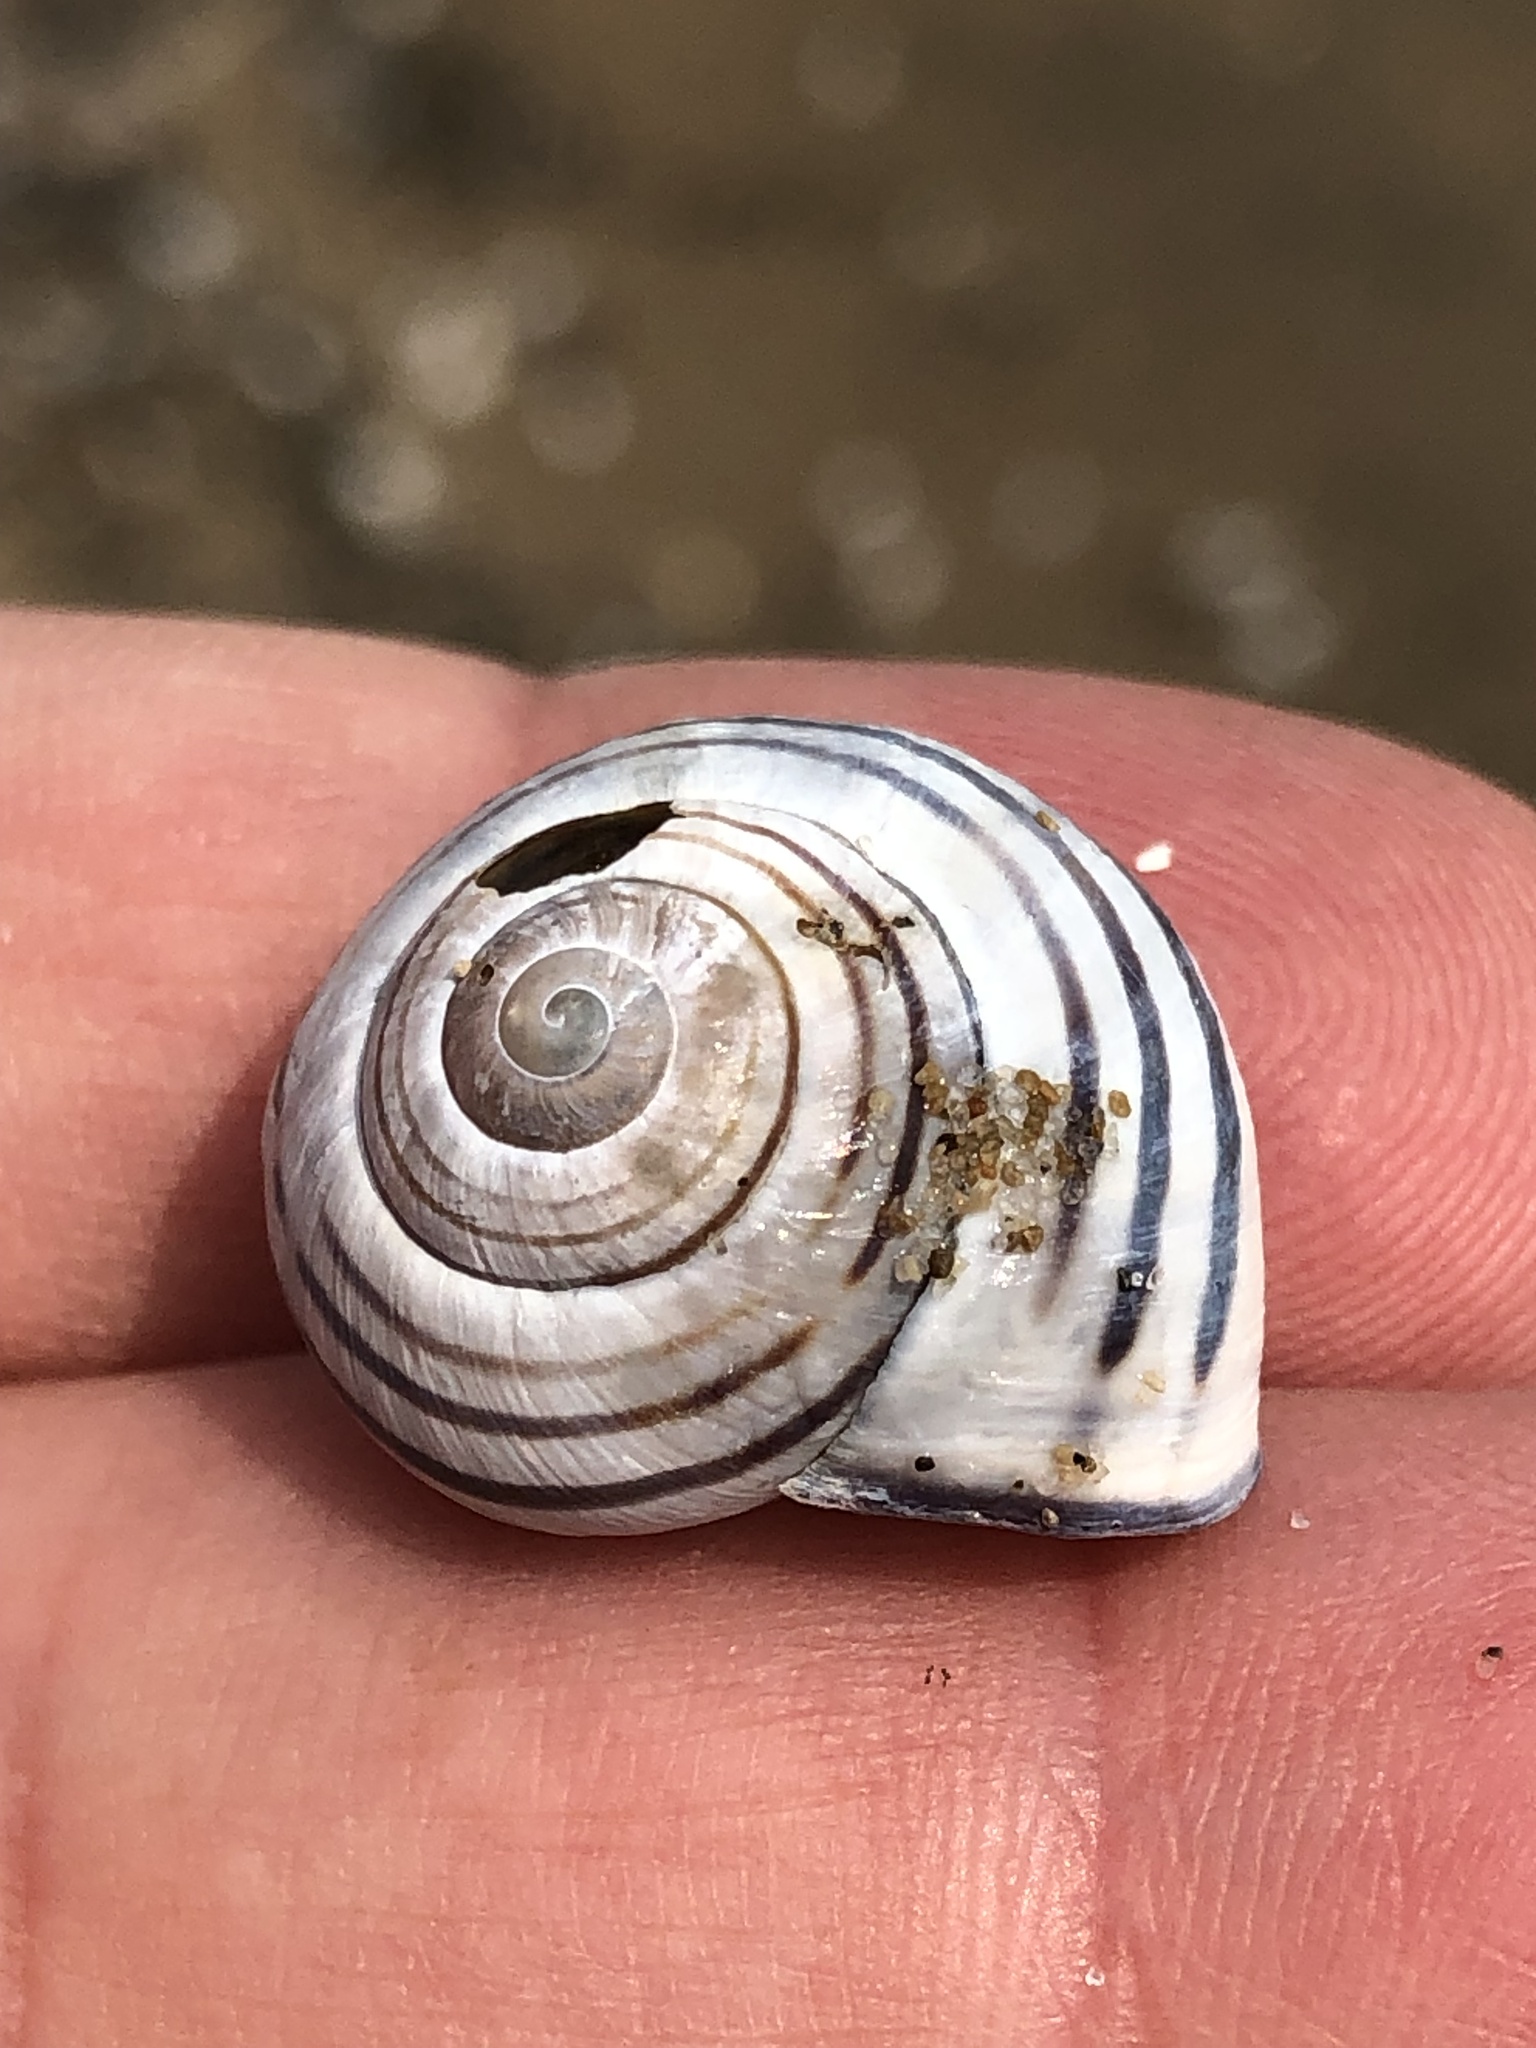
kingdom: Animalia
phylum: Mollusca
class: Gastropoda
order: Stylommatophora
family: Helicidae
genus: Cepaea
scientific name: Cepaea nemoralis
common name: Grovesnail
